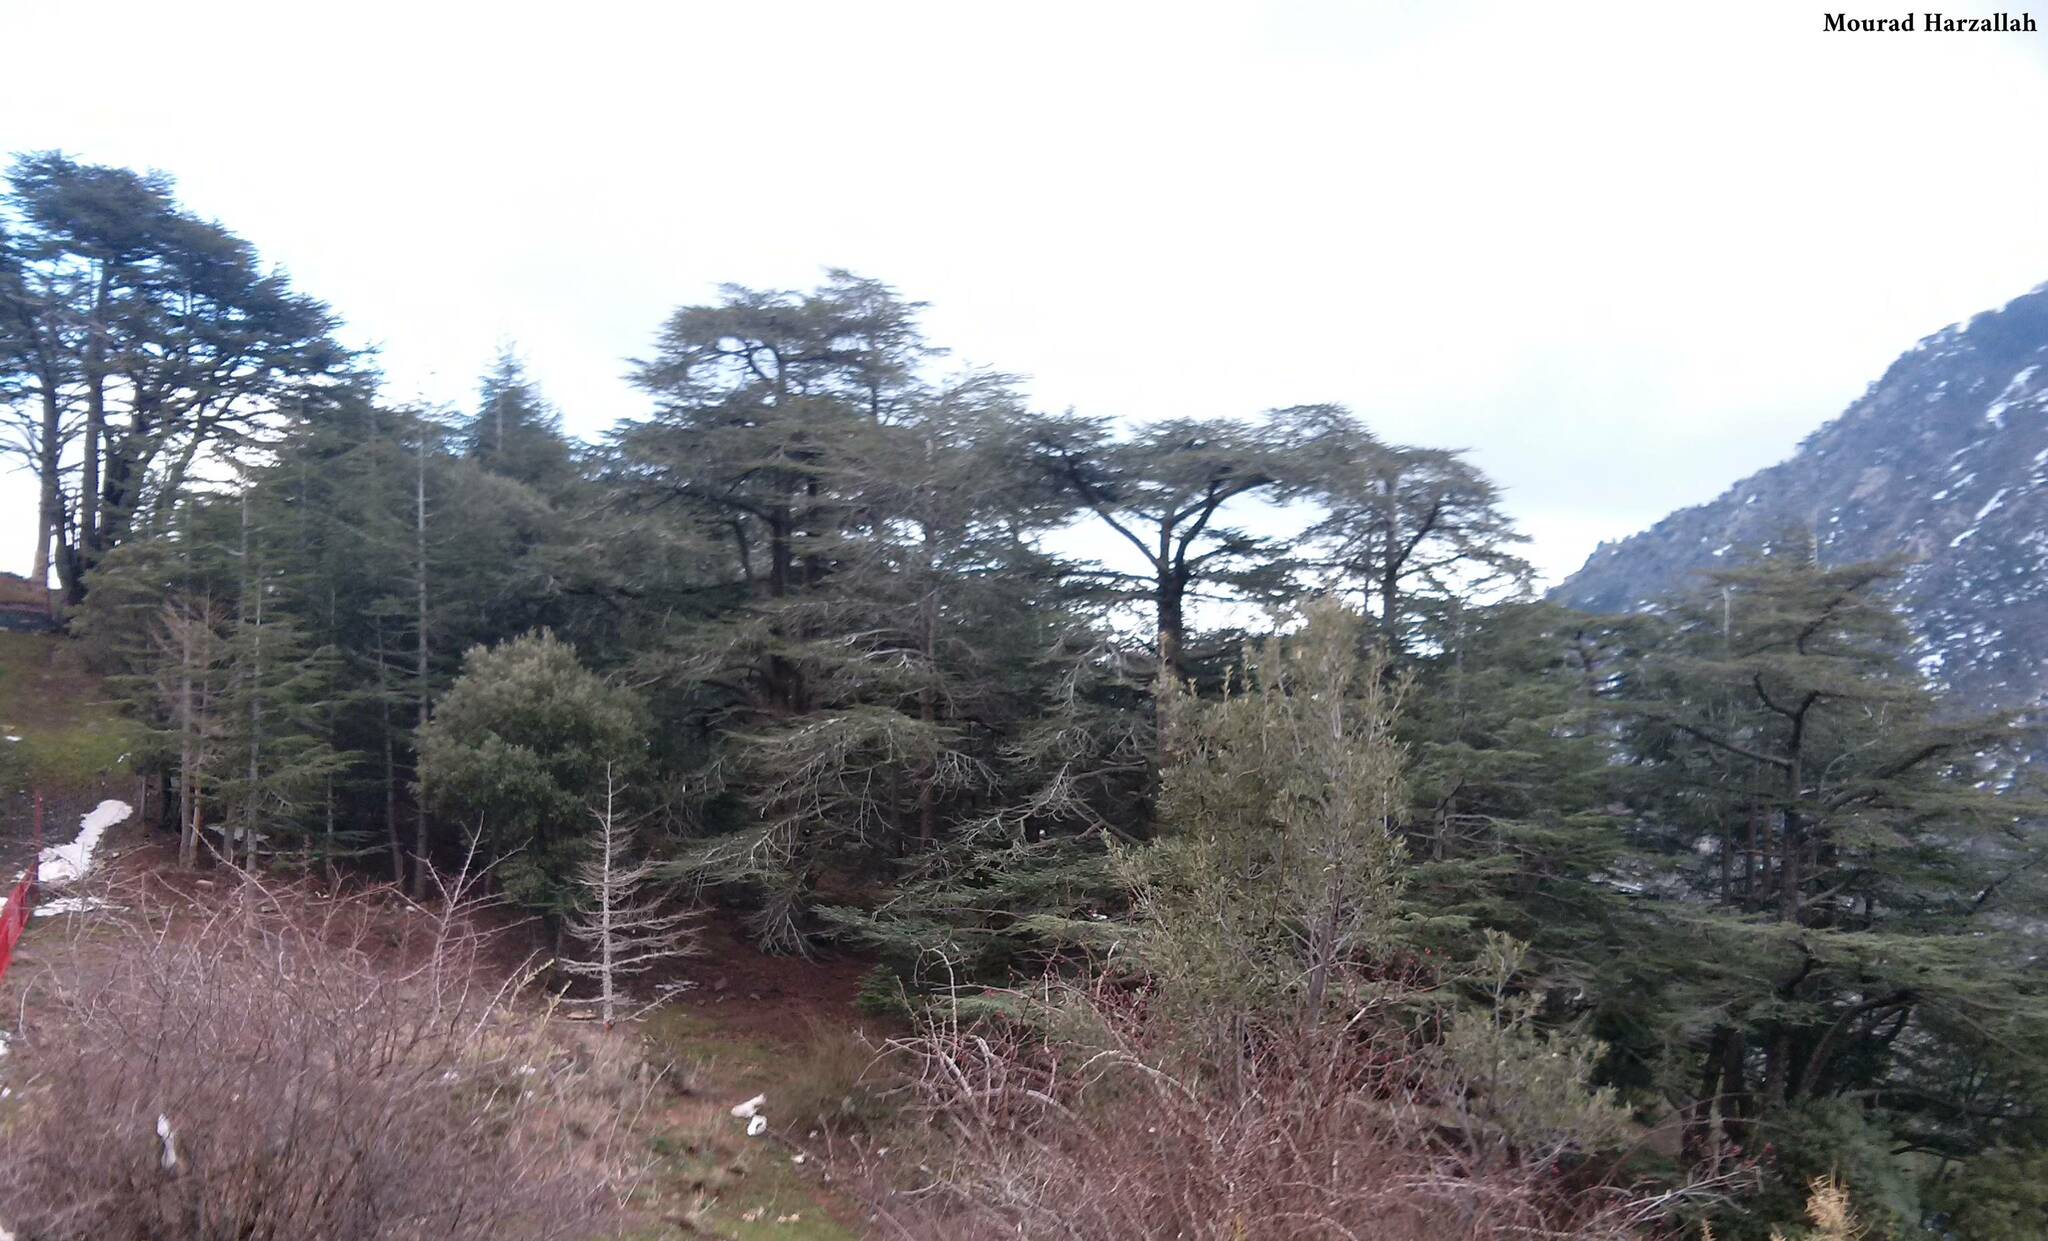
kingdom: Plantae
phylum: Tracheophyta
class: Pinopsida
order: Pinales
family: Pinaceae
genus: Cedrus
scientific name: Cedrus atlantica
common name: Atlas cedar
